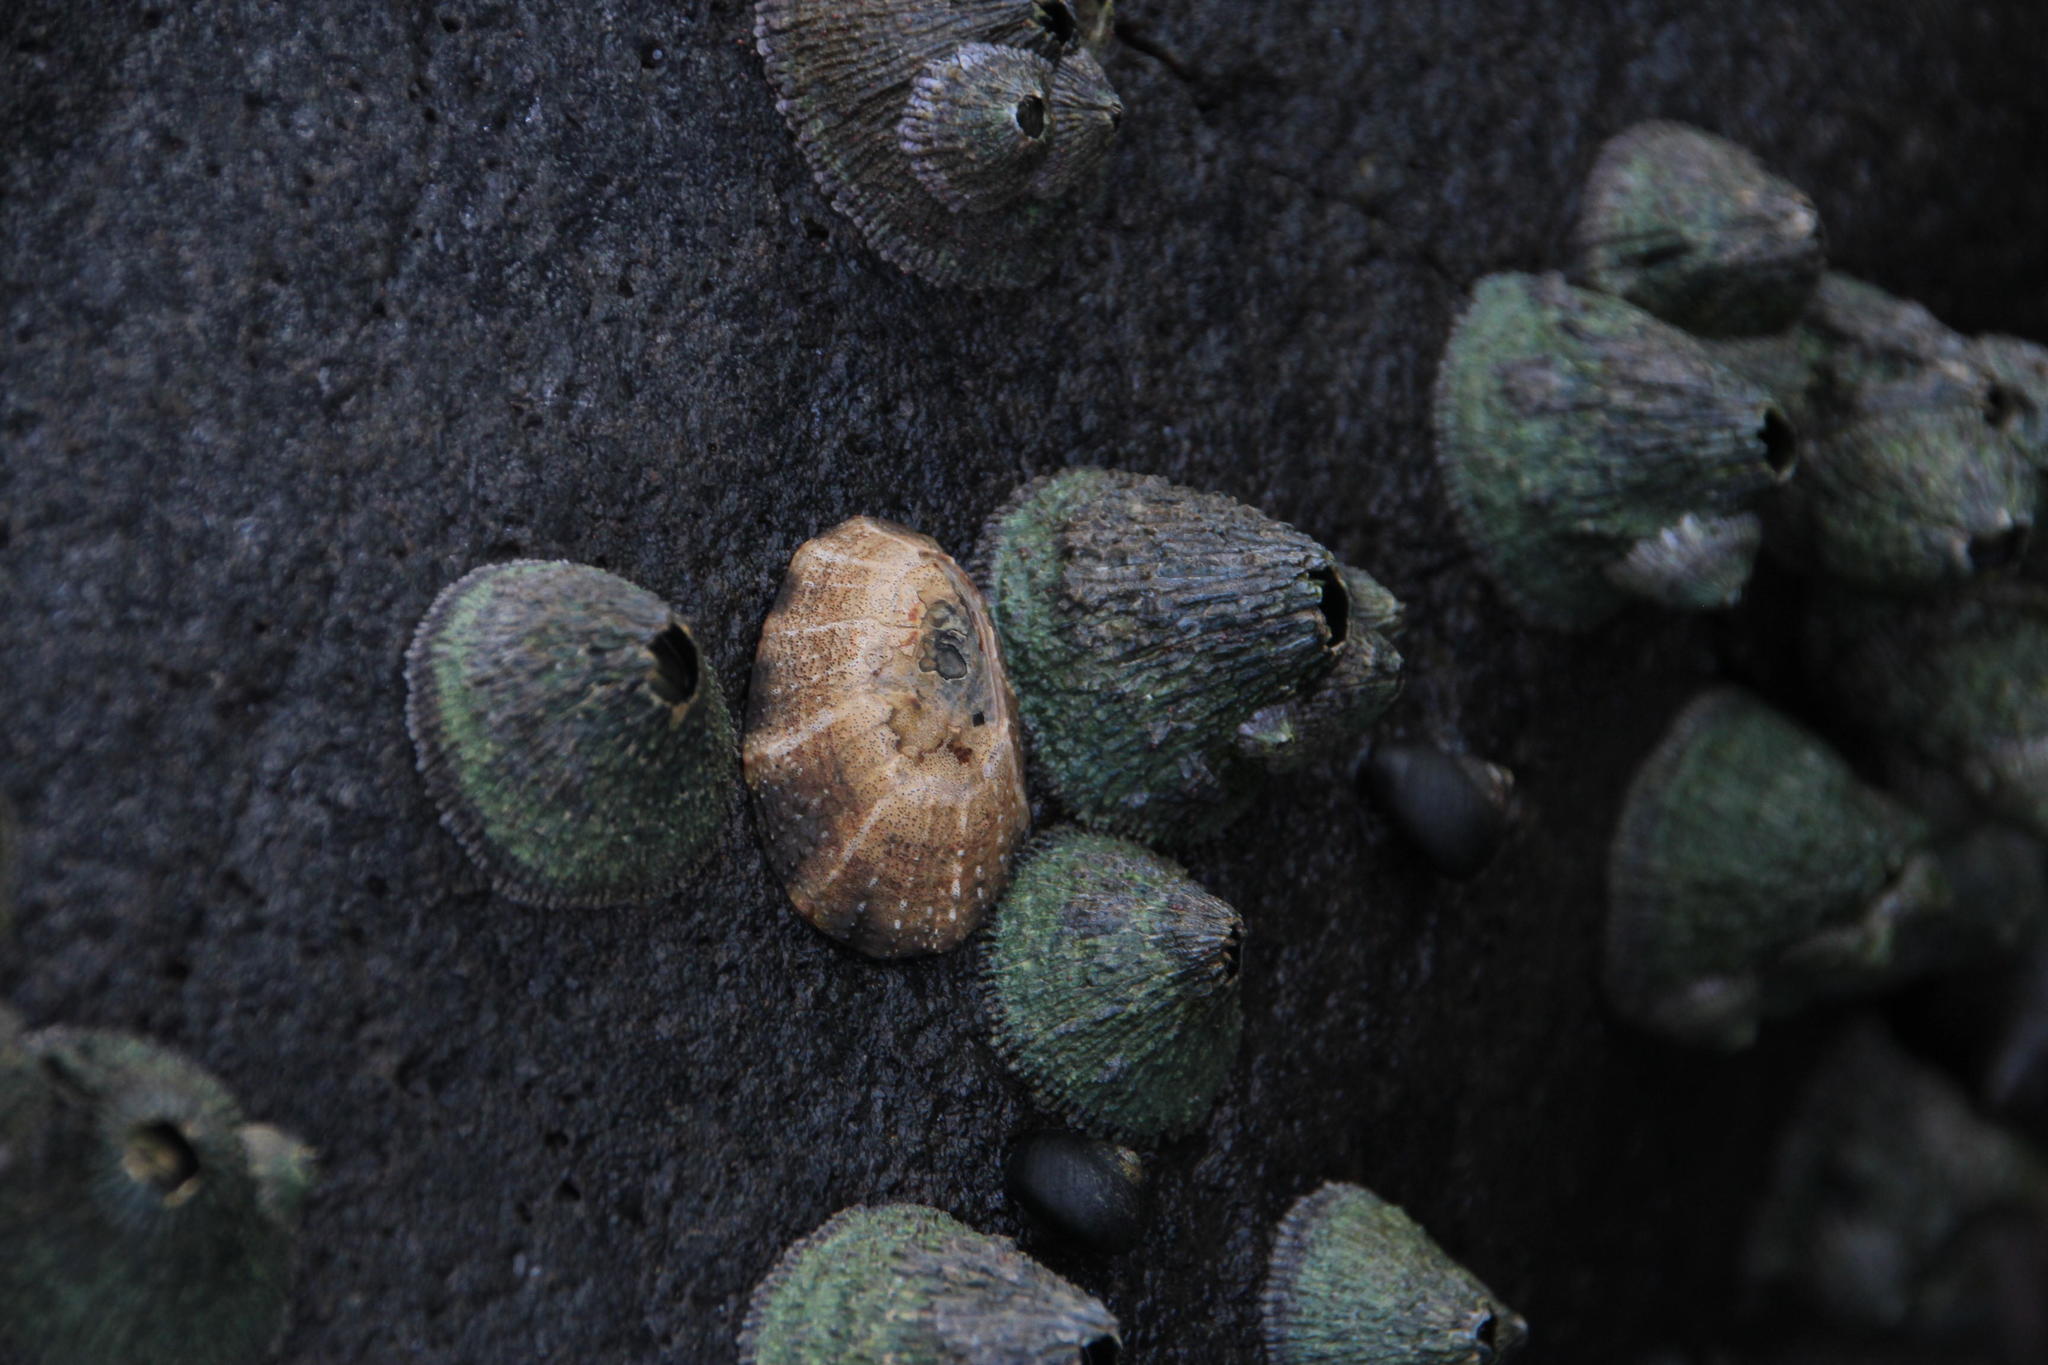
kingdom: Animalia
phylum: Mollusca
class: Gastropoda
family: Patellidae
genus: Scutellastra
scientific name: Scutellastra granularis
